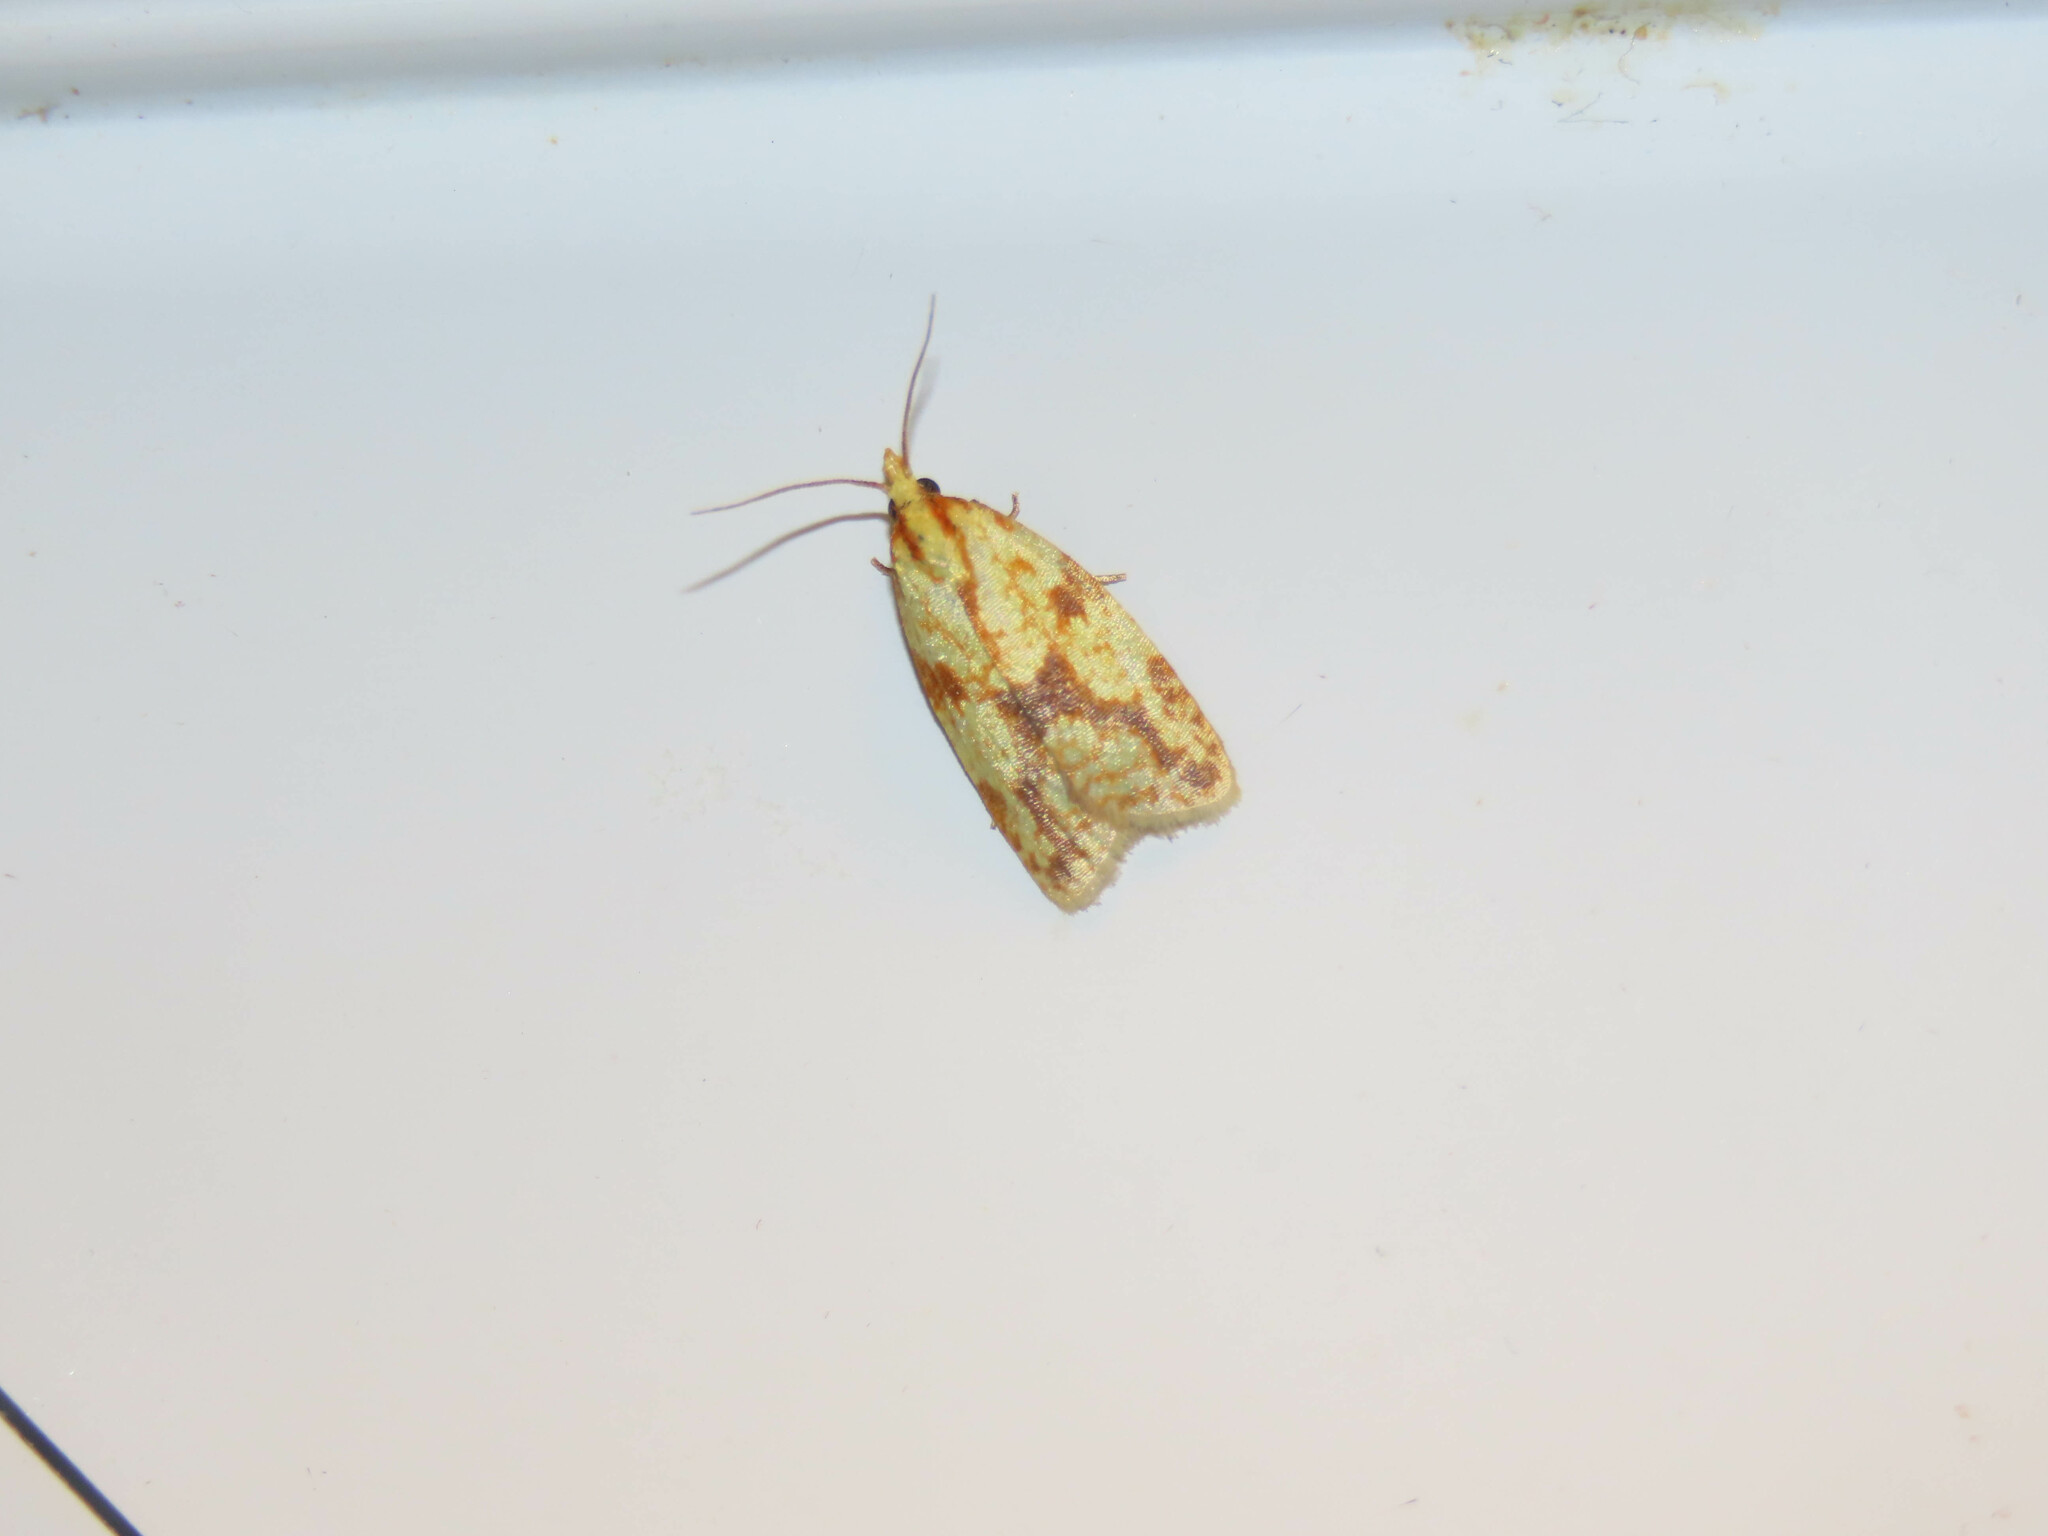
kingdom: Animalia
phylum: Arthropoda
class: Insecta
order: Lepidoptera
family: Tortricidae
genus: Sparganothis
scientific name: Sparganothis sulfureana
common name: Sparganothis fruitworm moth
